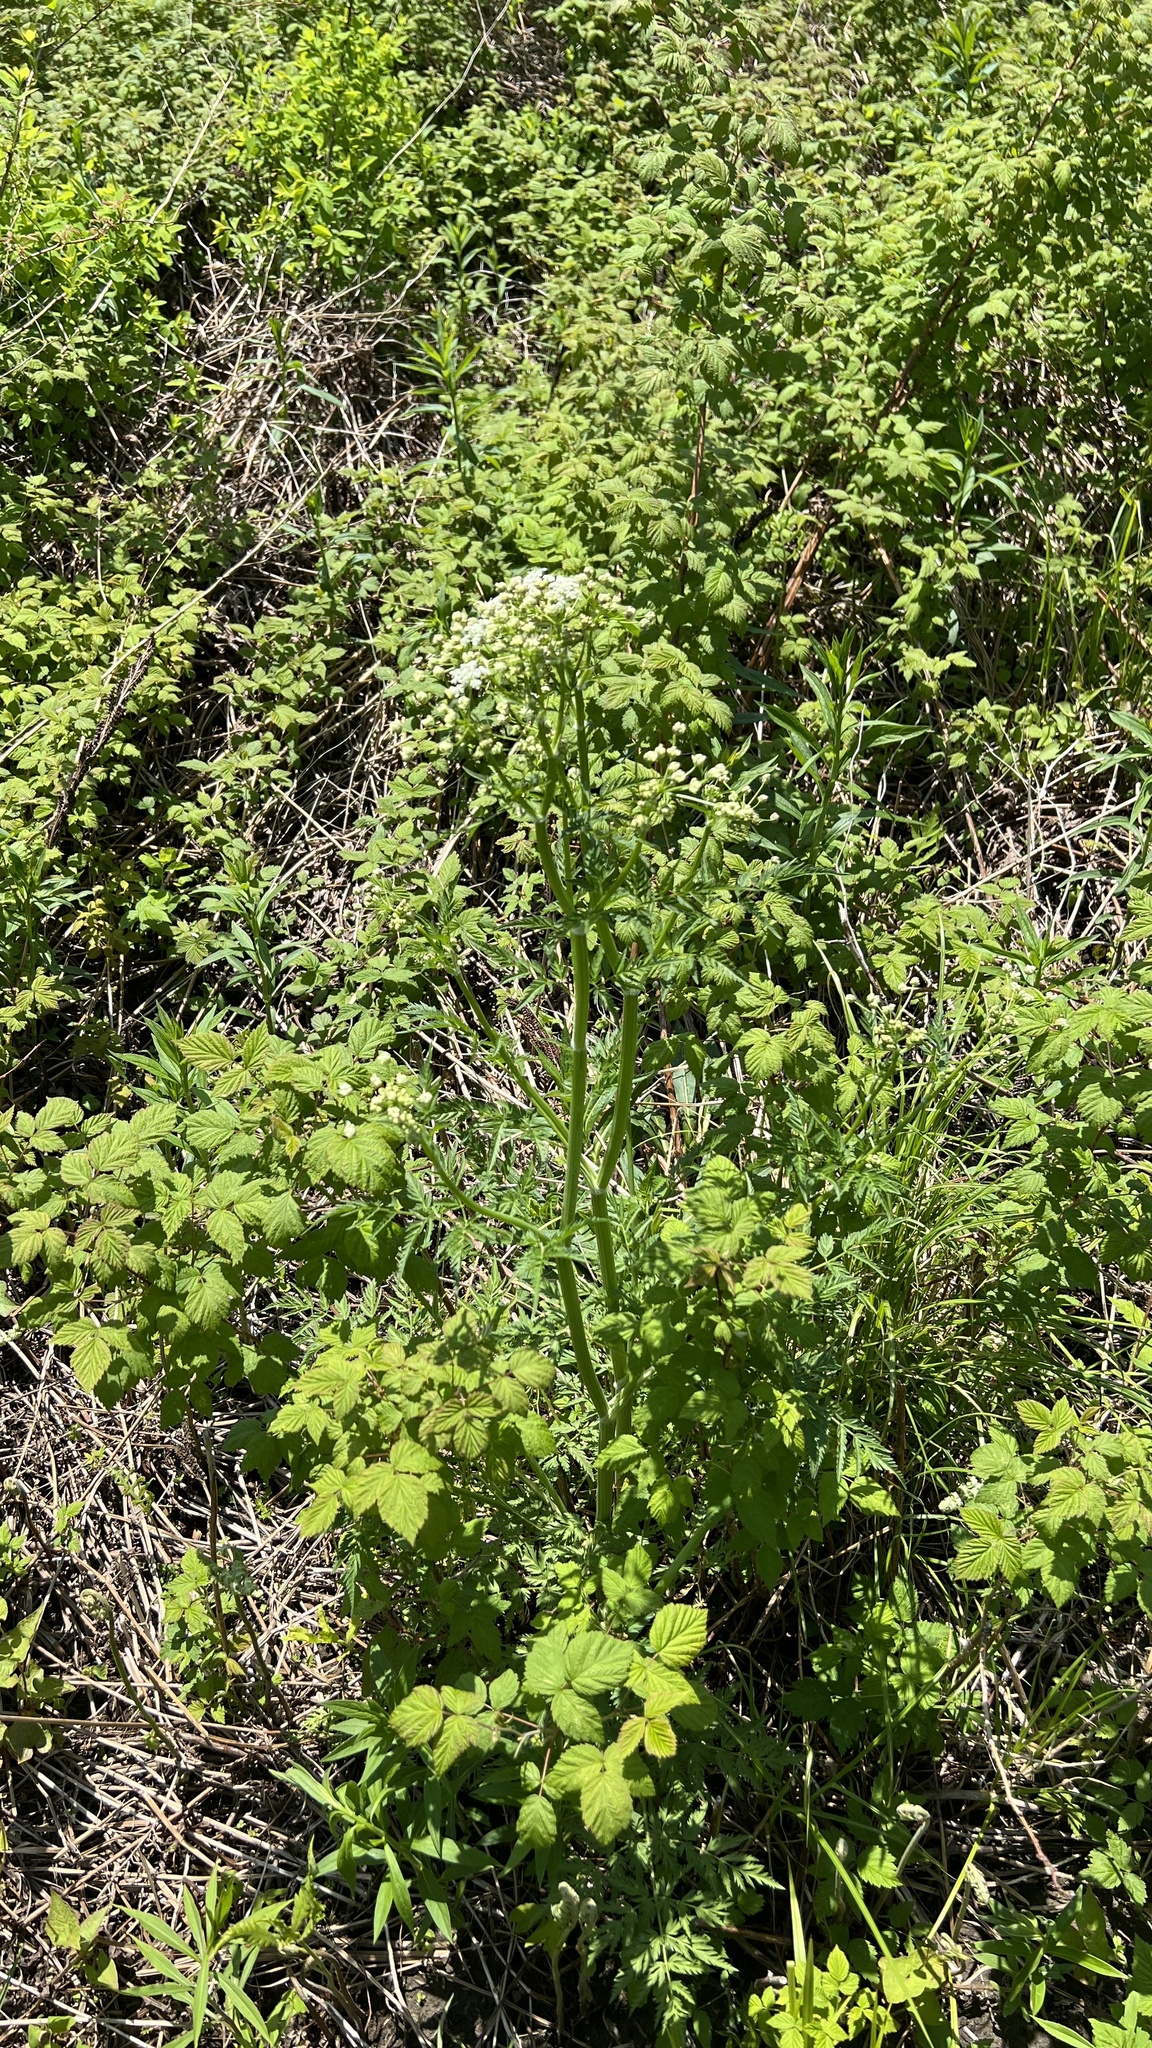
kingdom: Plantae
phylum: Tracheophyta
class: Magnoliopsida
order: Apiales
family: Apiaceae
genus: Anthriscus
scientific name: Anthriscus sylvestris
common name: Cow parsley
